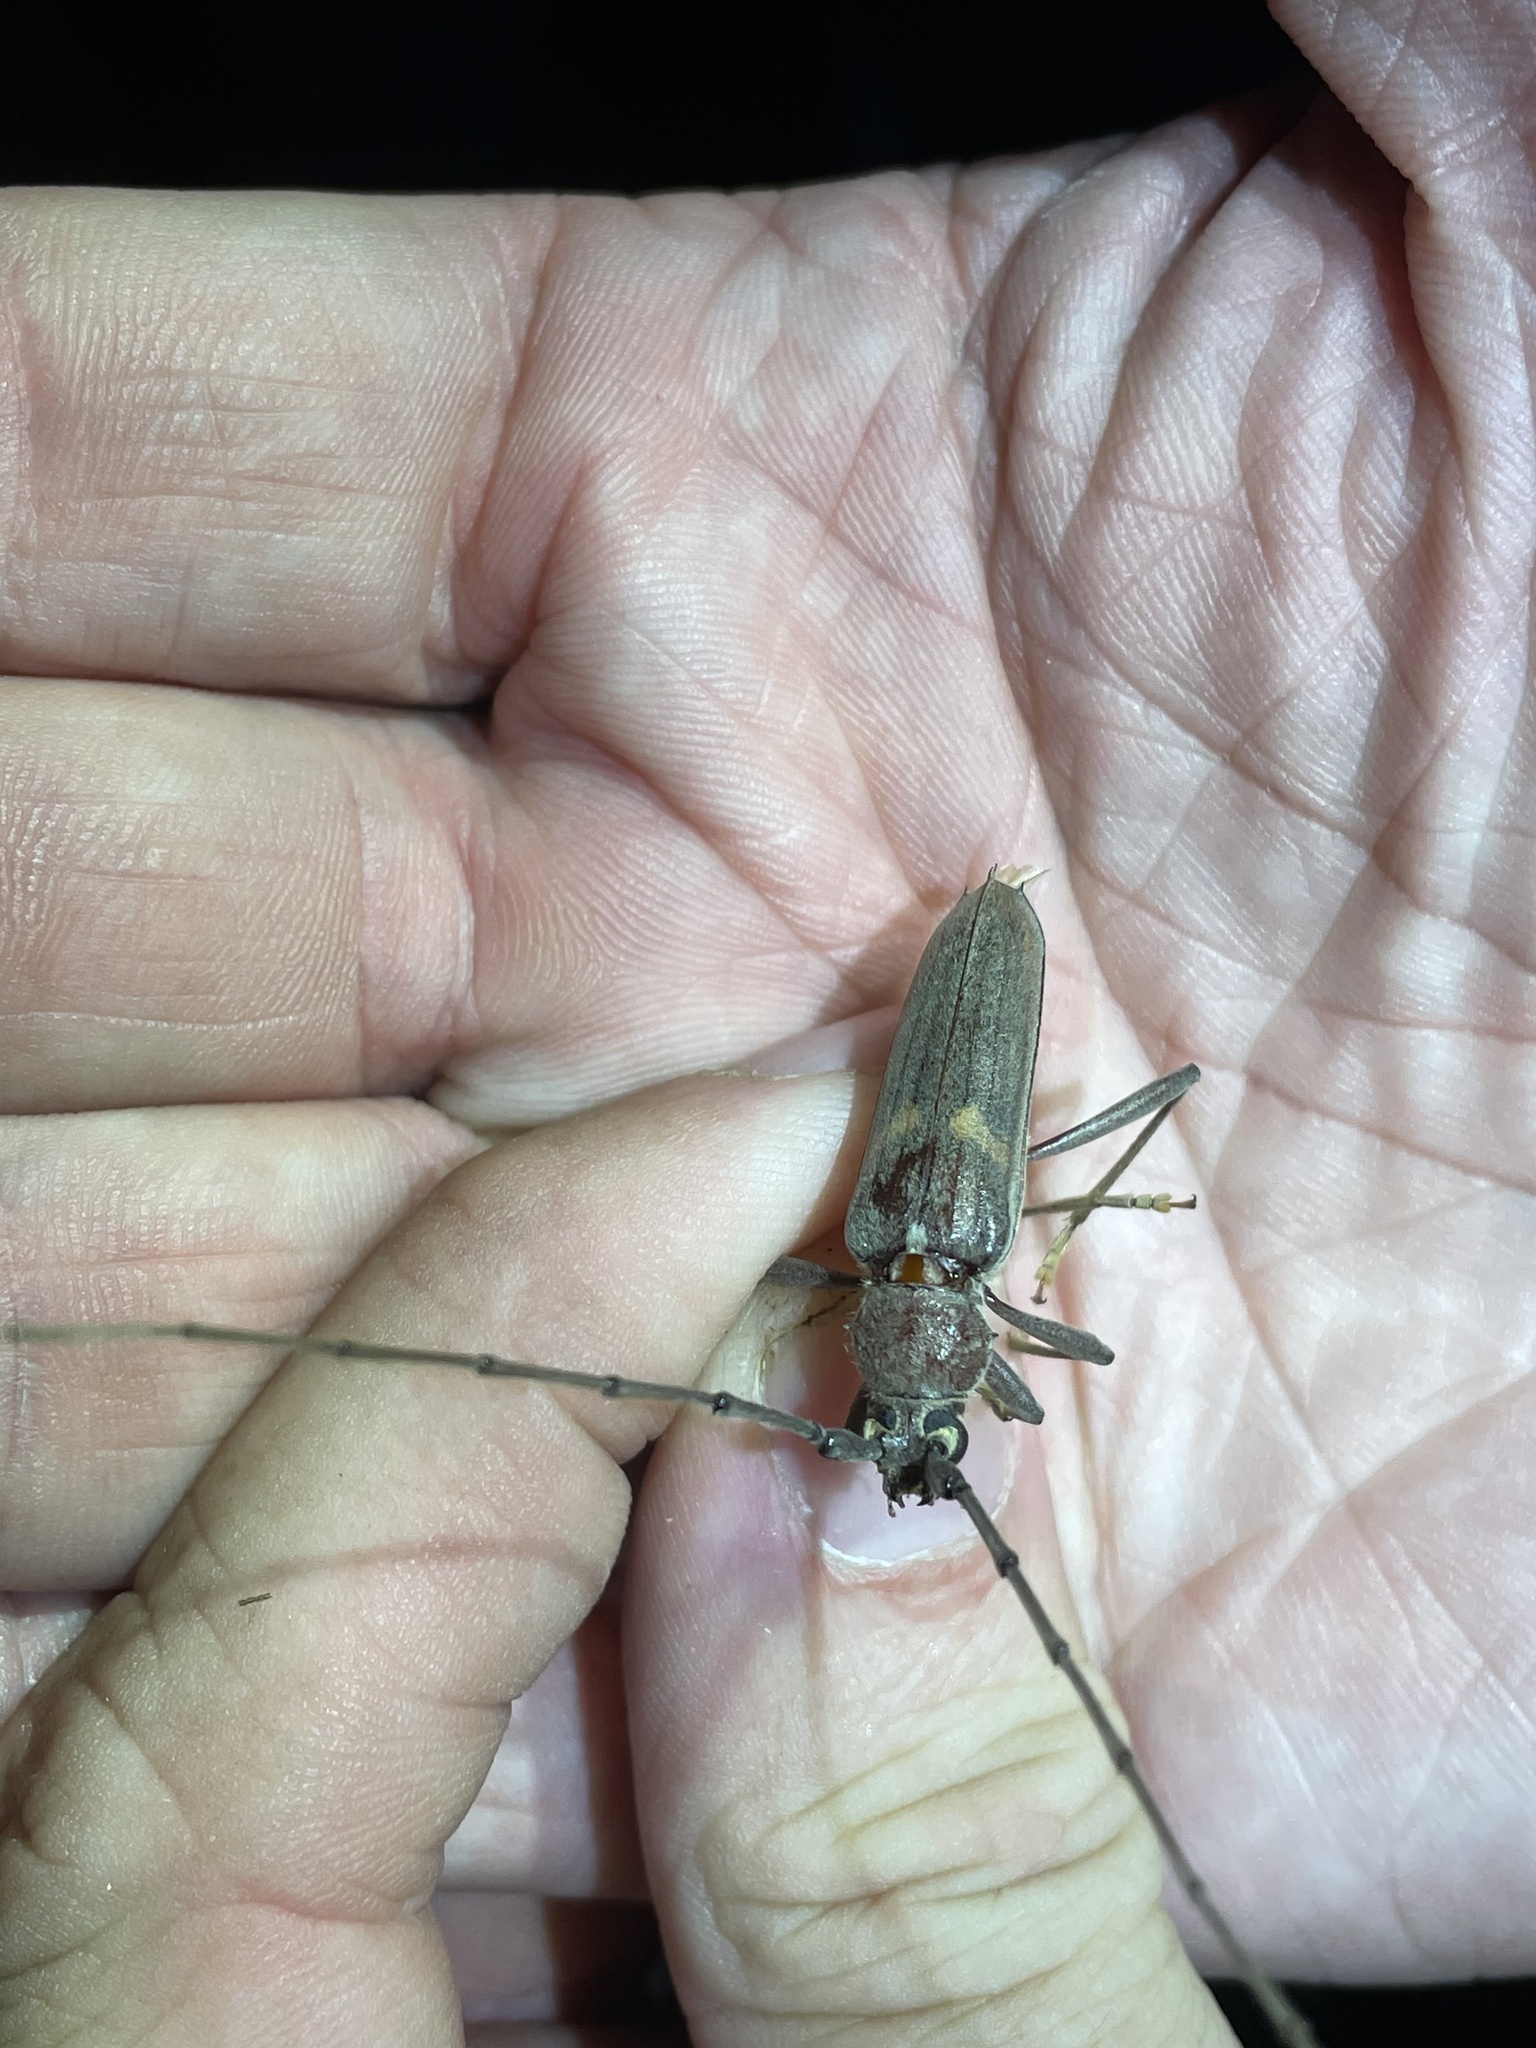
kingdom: Animalia
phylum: Arthropoda
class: Insecta
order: Coleoptera
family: Cerambycidae
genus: Knulliana
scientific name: Knulliana cincta
